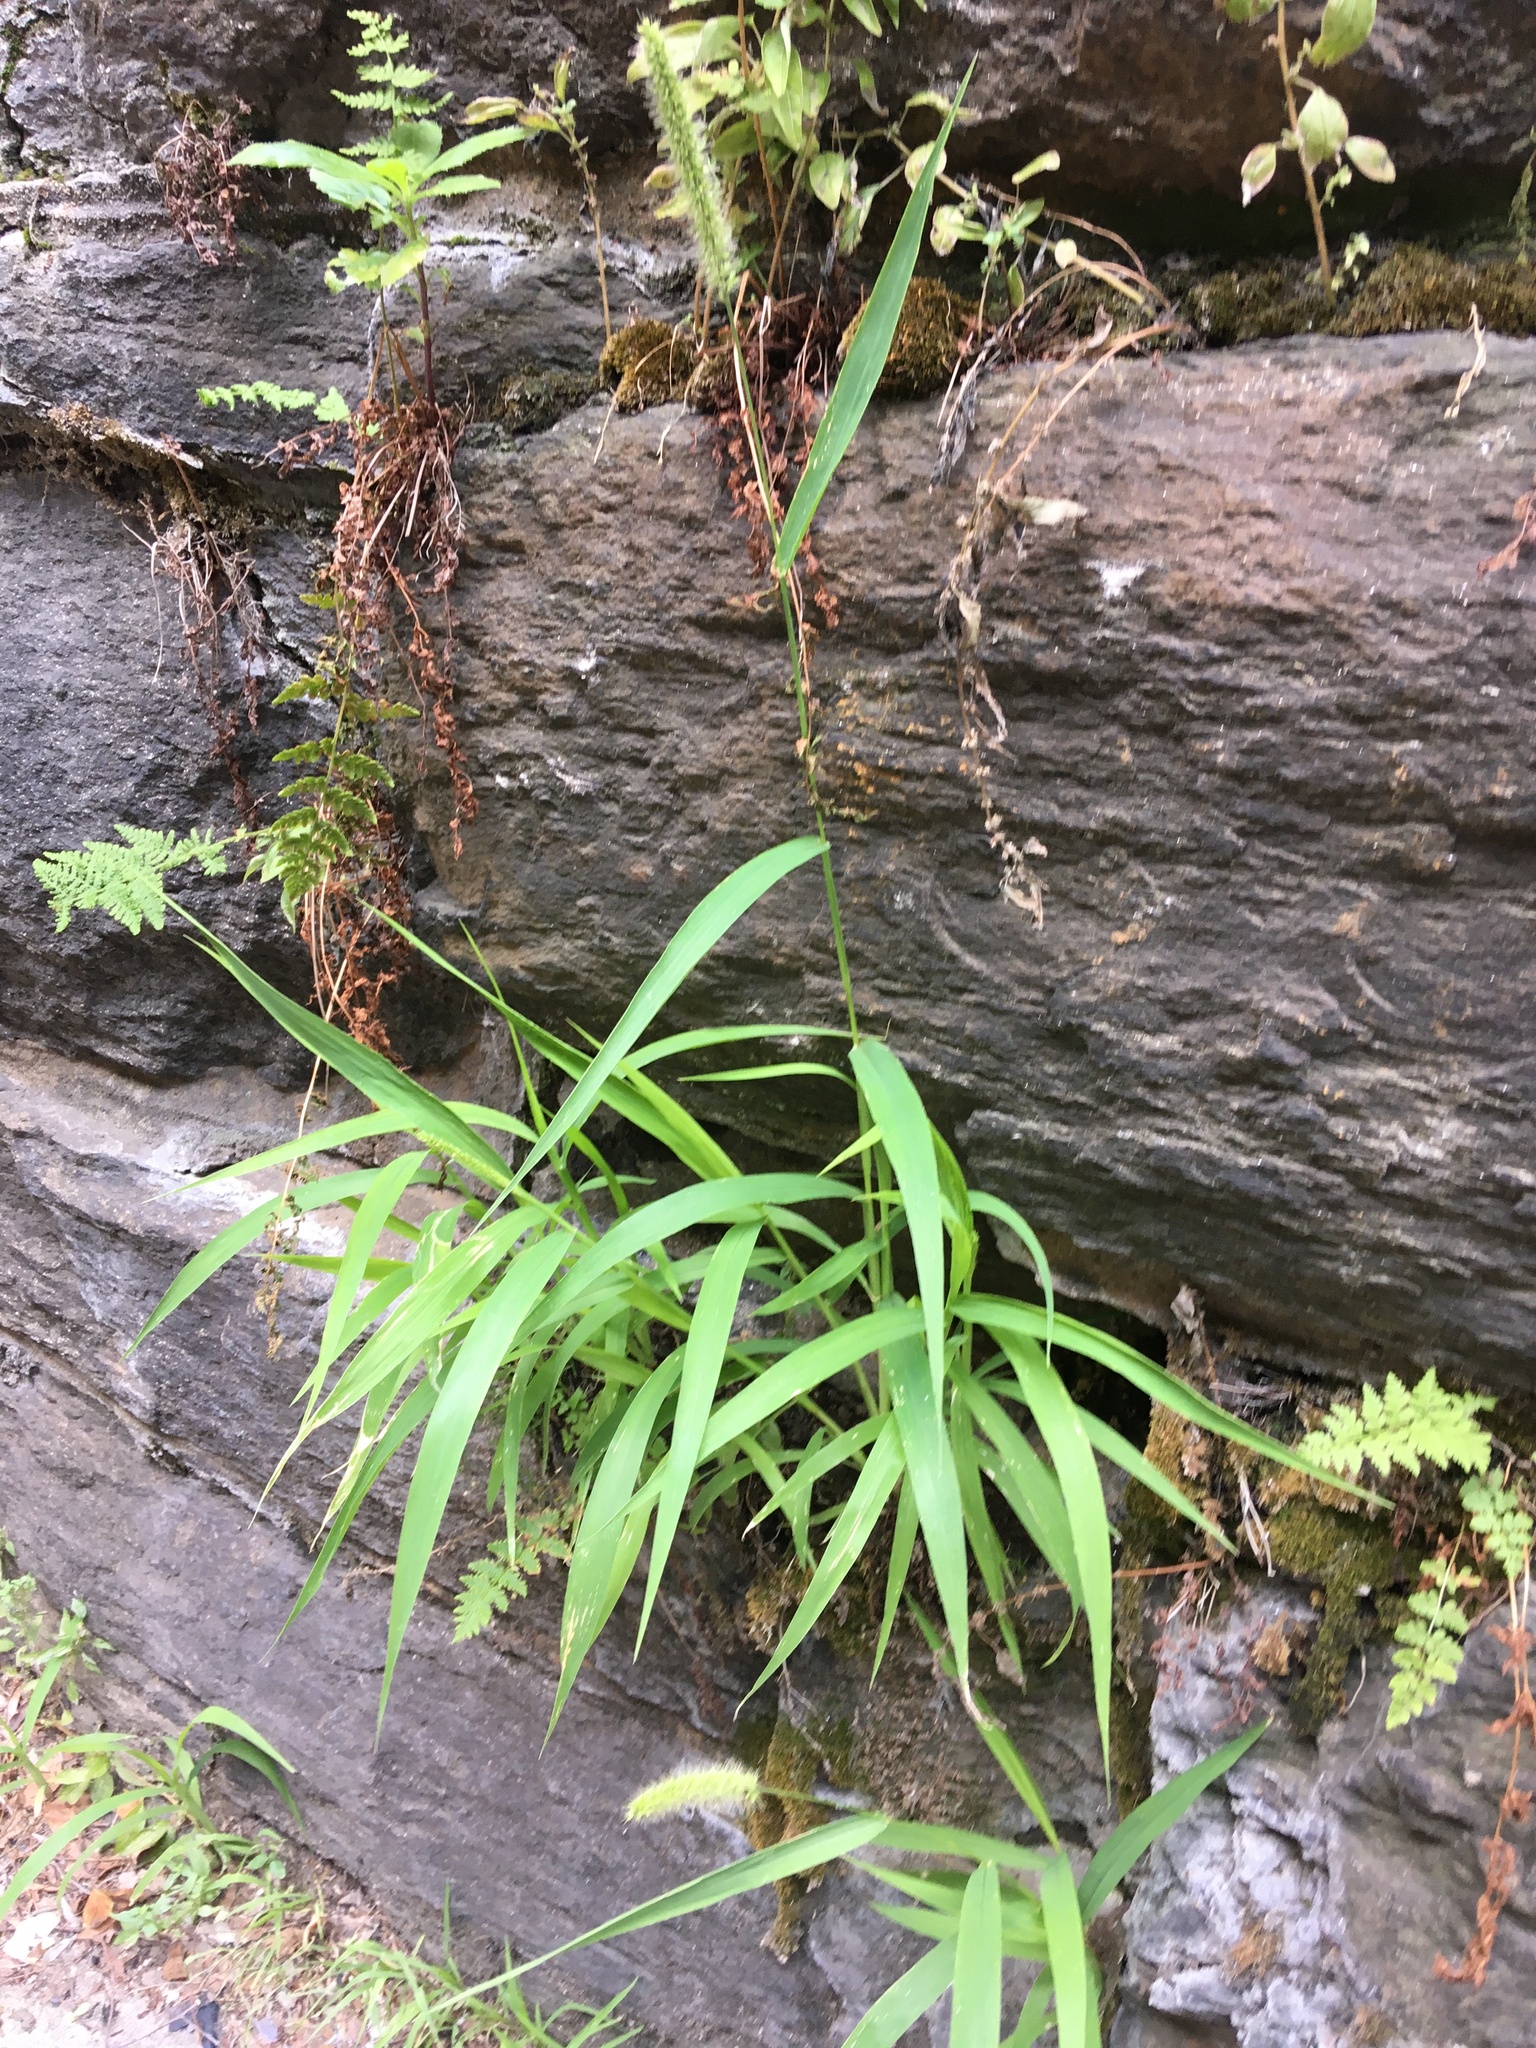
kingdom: Plantae
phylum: Tracheophyta
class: Liliopsida
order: Poales
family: Poaceae
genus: Setaria
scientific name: Setaria viridis
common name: Green bristlegrass
